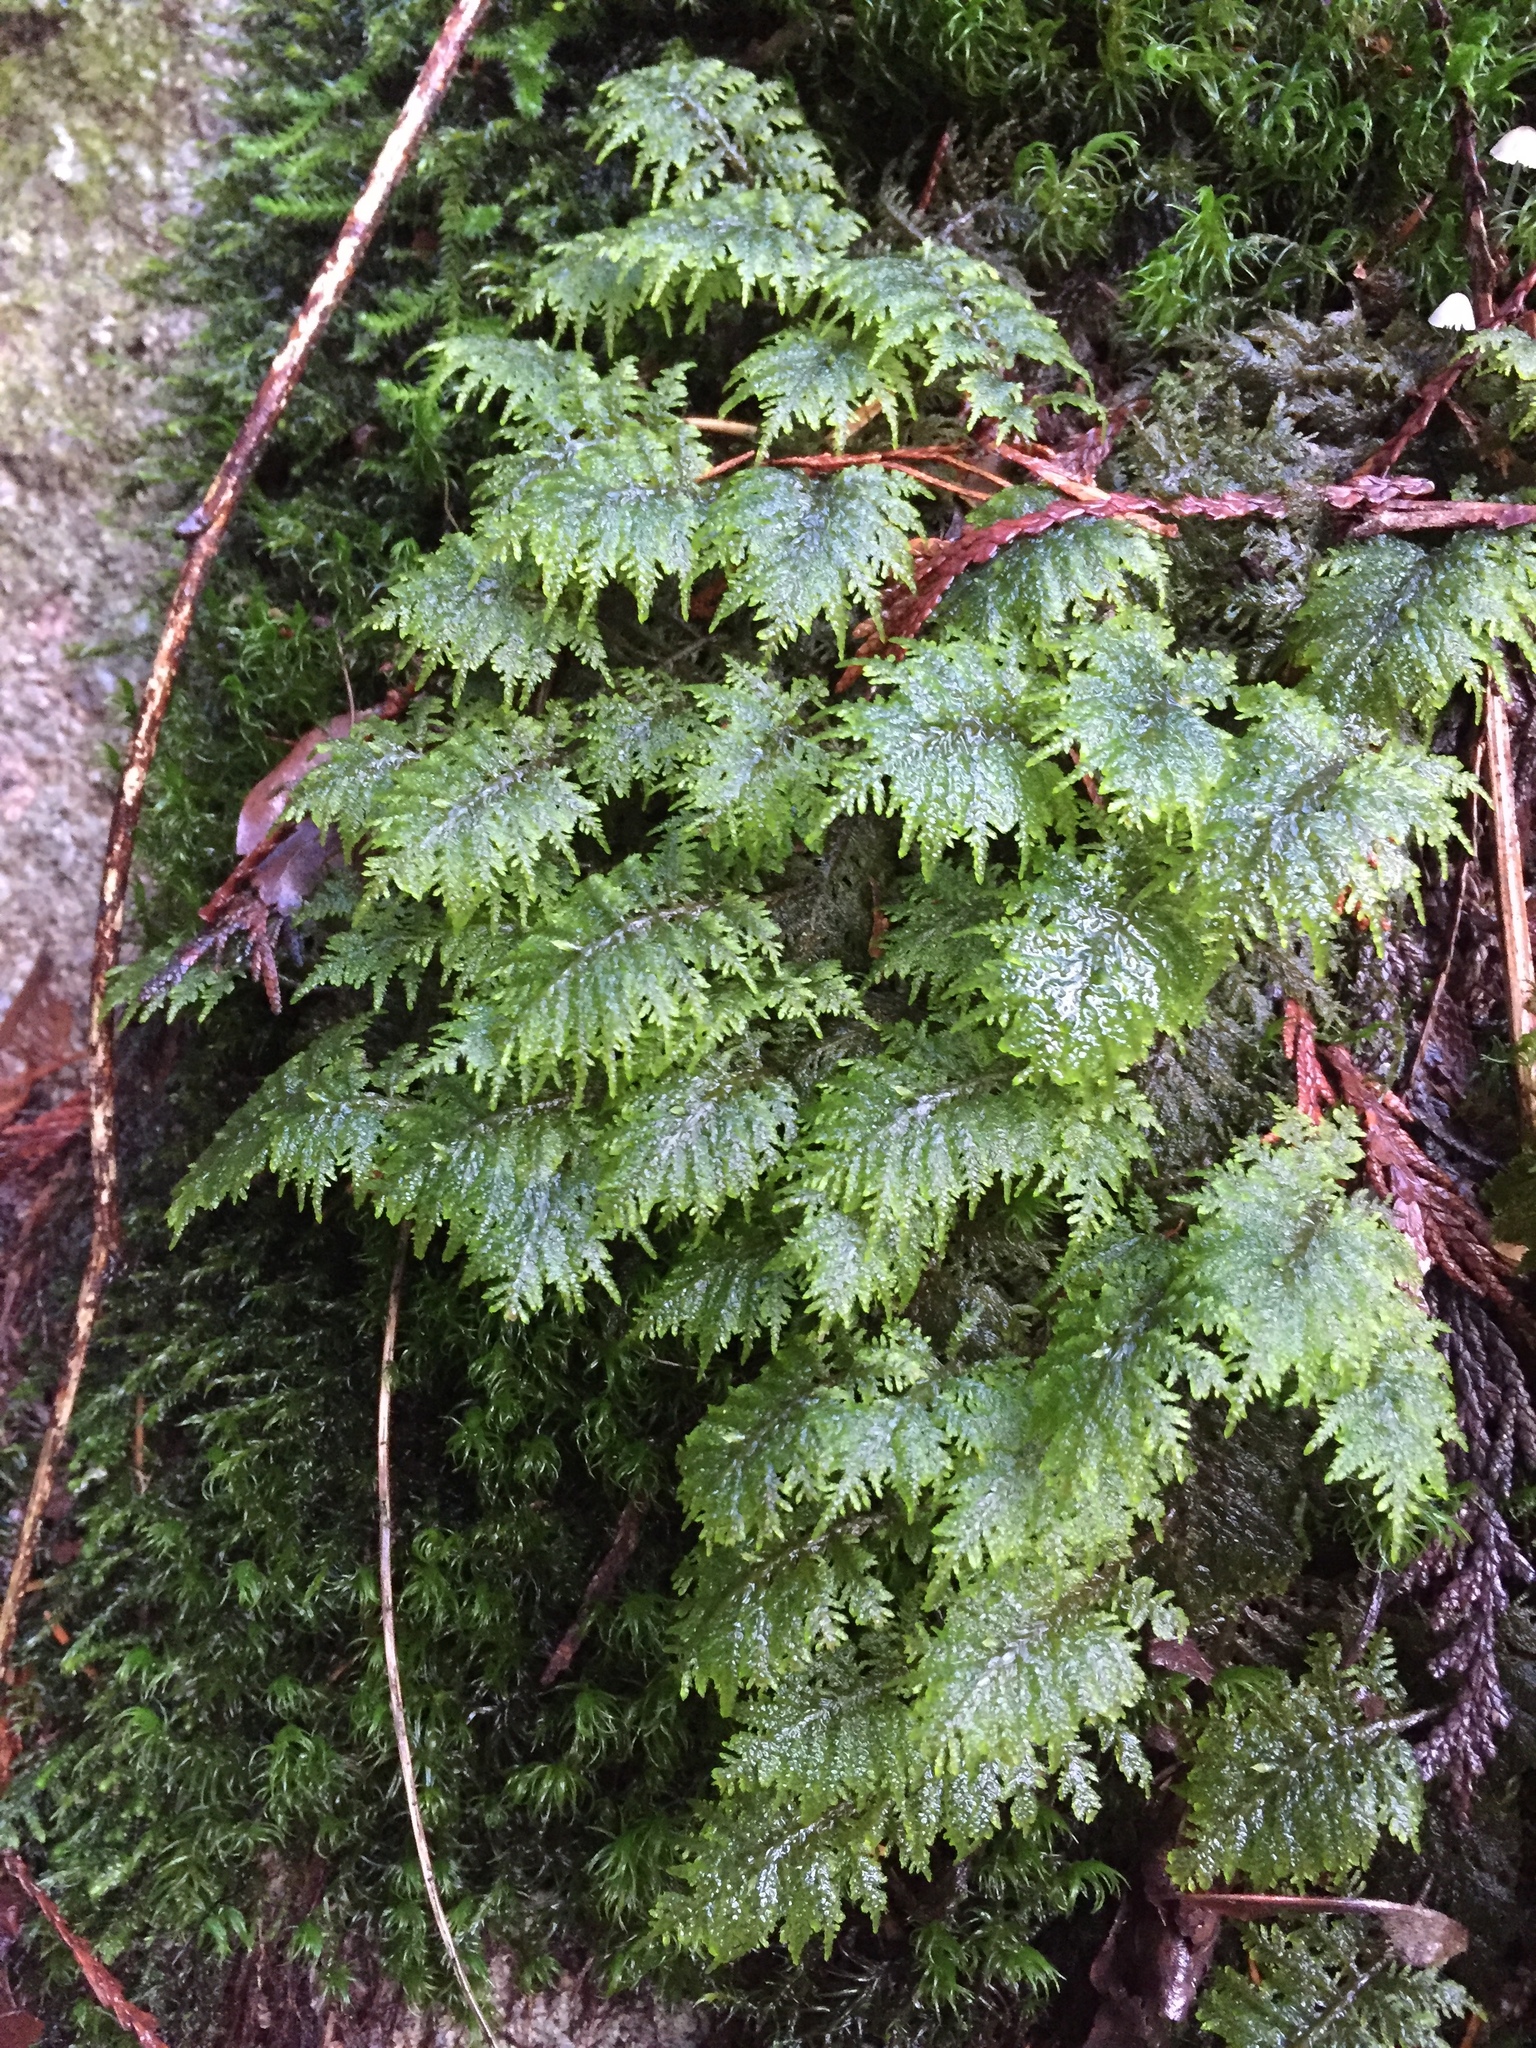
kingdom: Plantae
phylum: Bryophyta
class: Bryopsida
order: Hypnales
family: Hylocomiaceae
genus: Hylocomium
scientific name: Hylocomium splendens
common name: Stairstep moss
